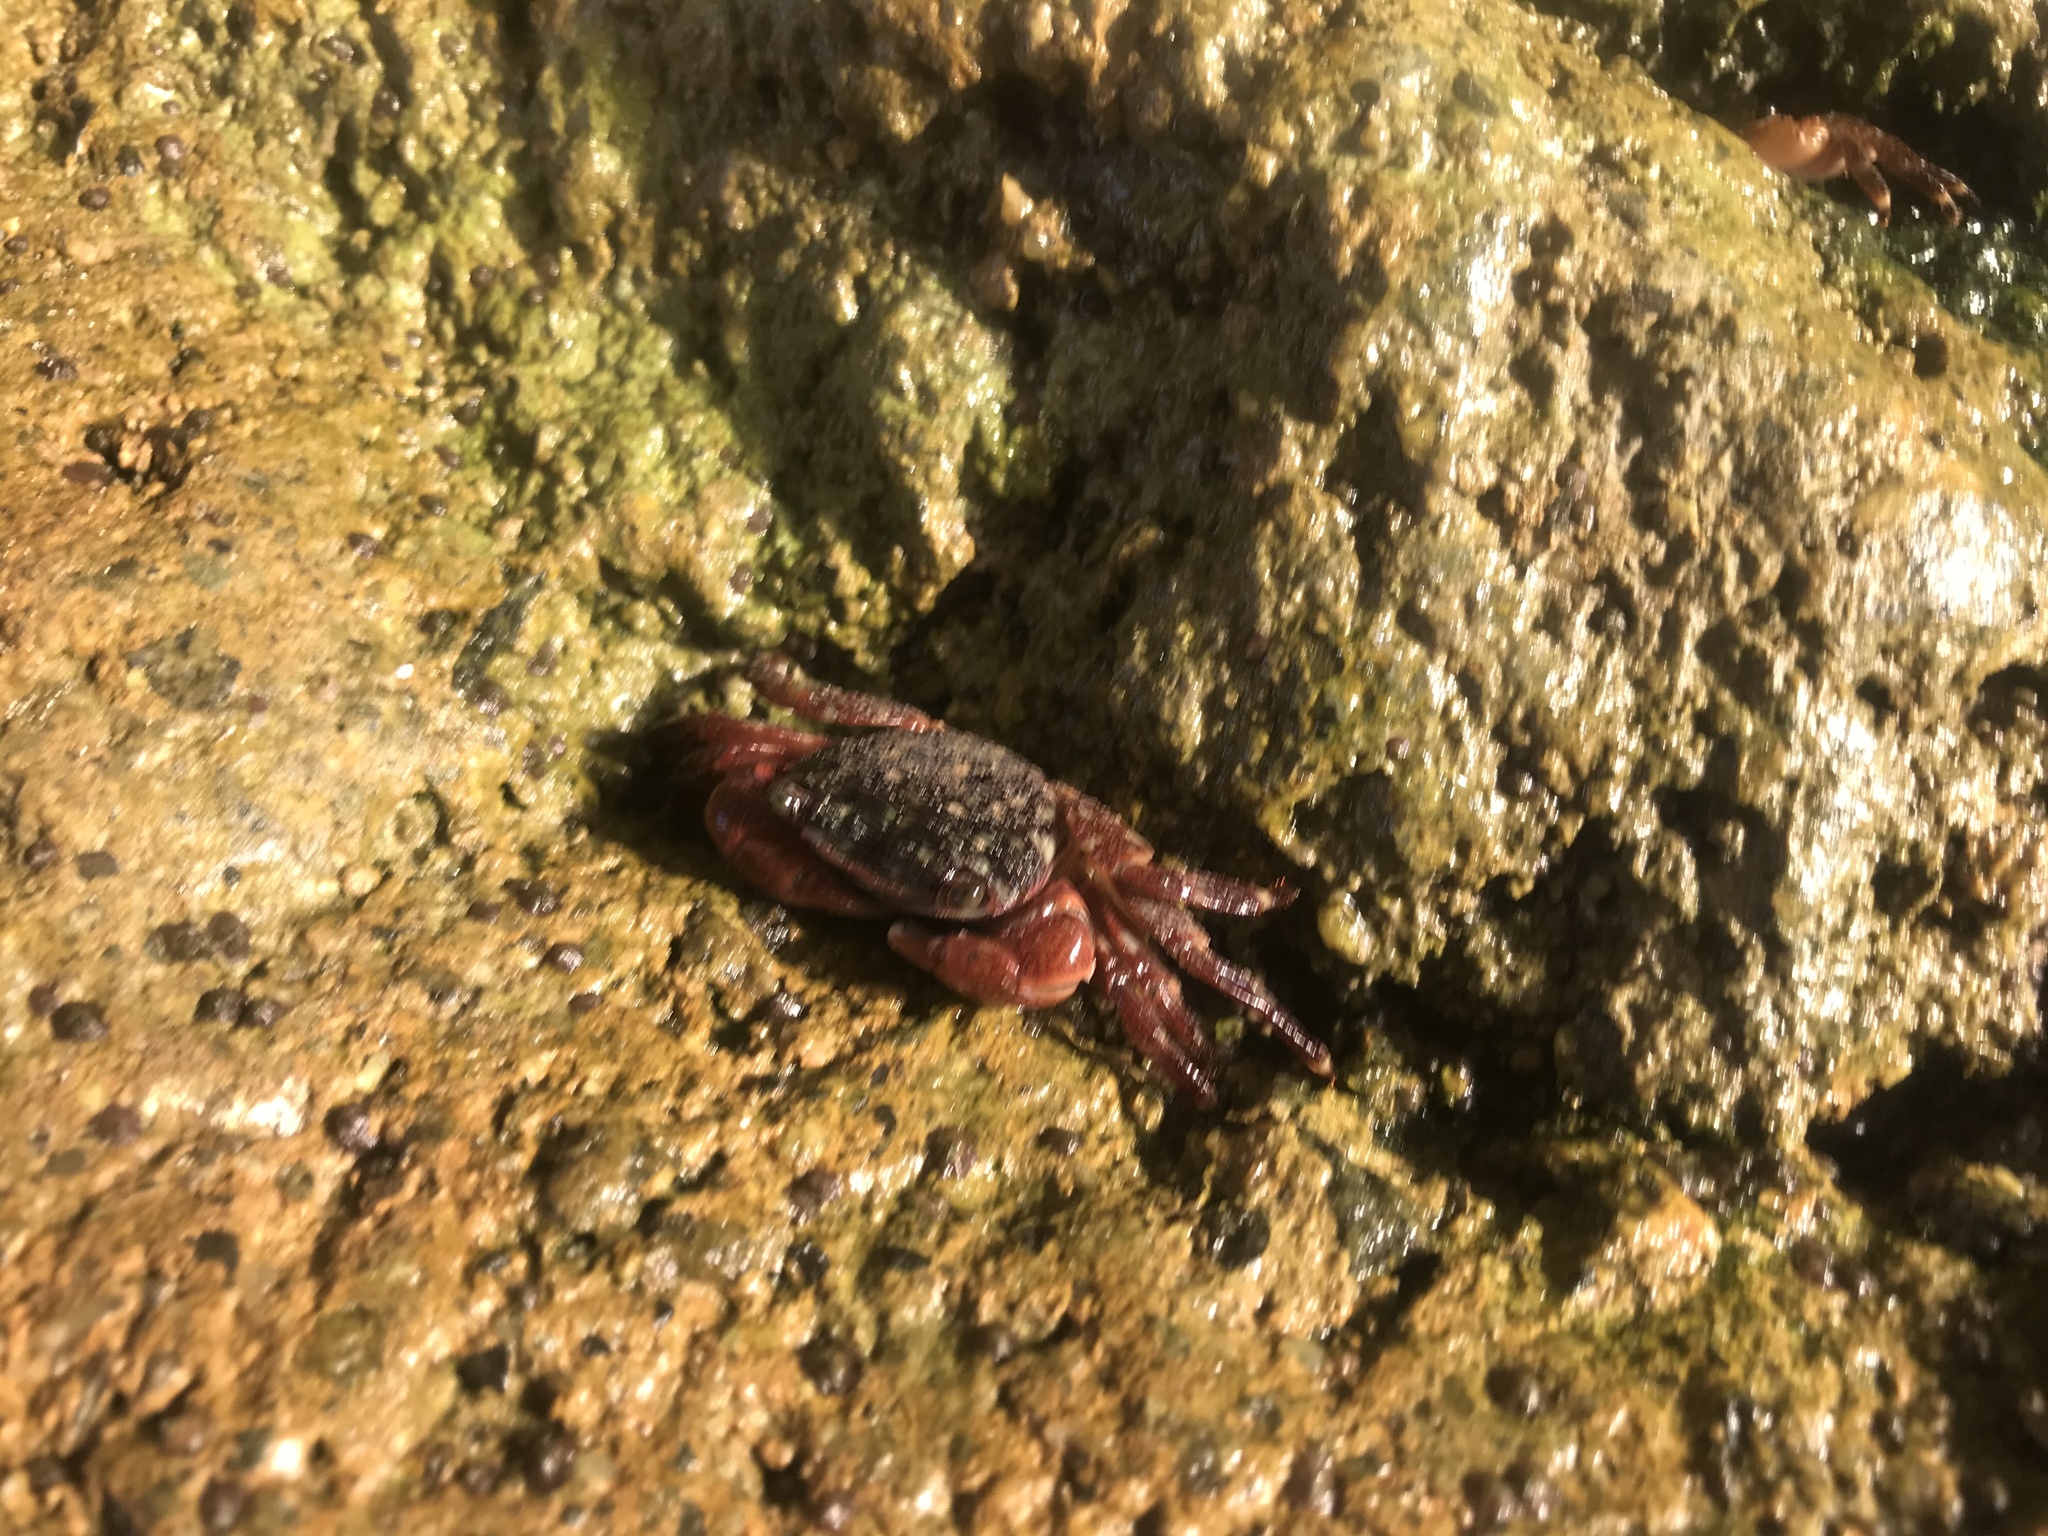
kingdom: Animalia
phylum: Arthropoda
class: Malacostraca
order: Decapoda
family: Grapsidae
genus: Pachygrapsus
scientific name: Pachygrapsus crassipes
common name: Striped shore crab
